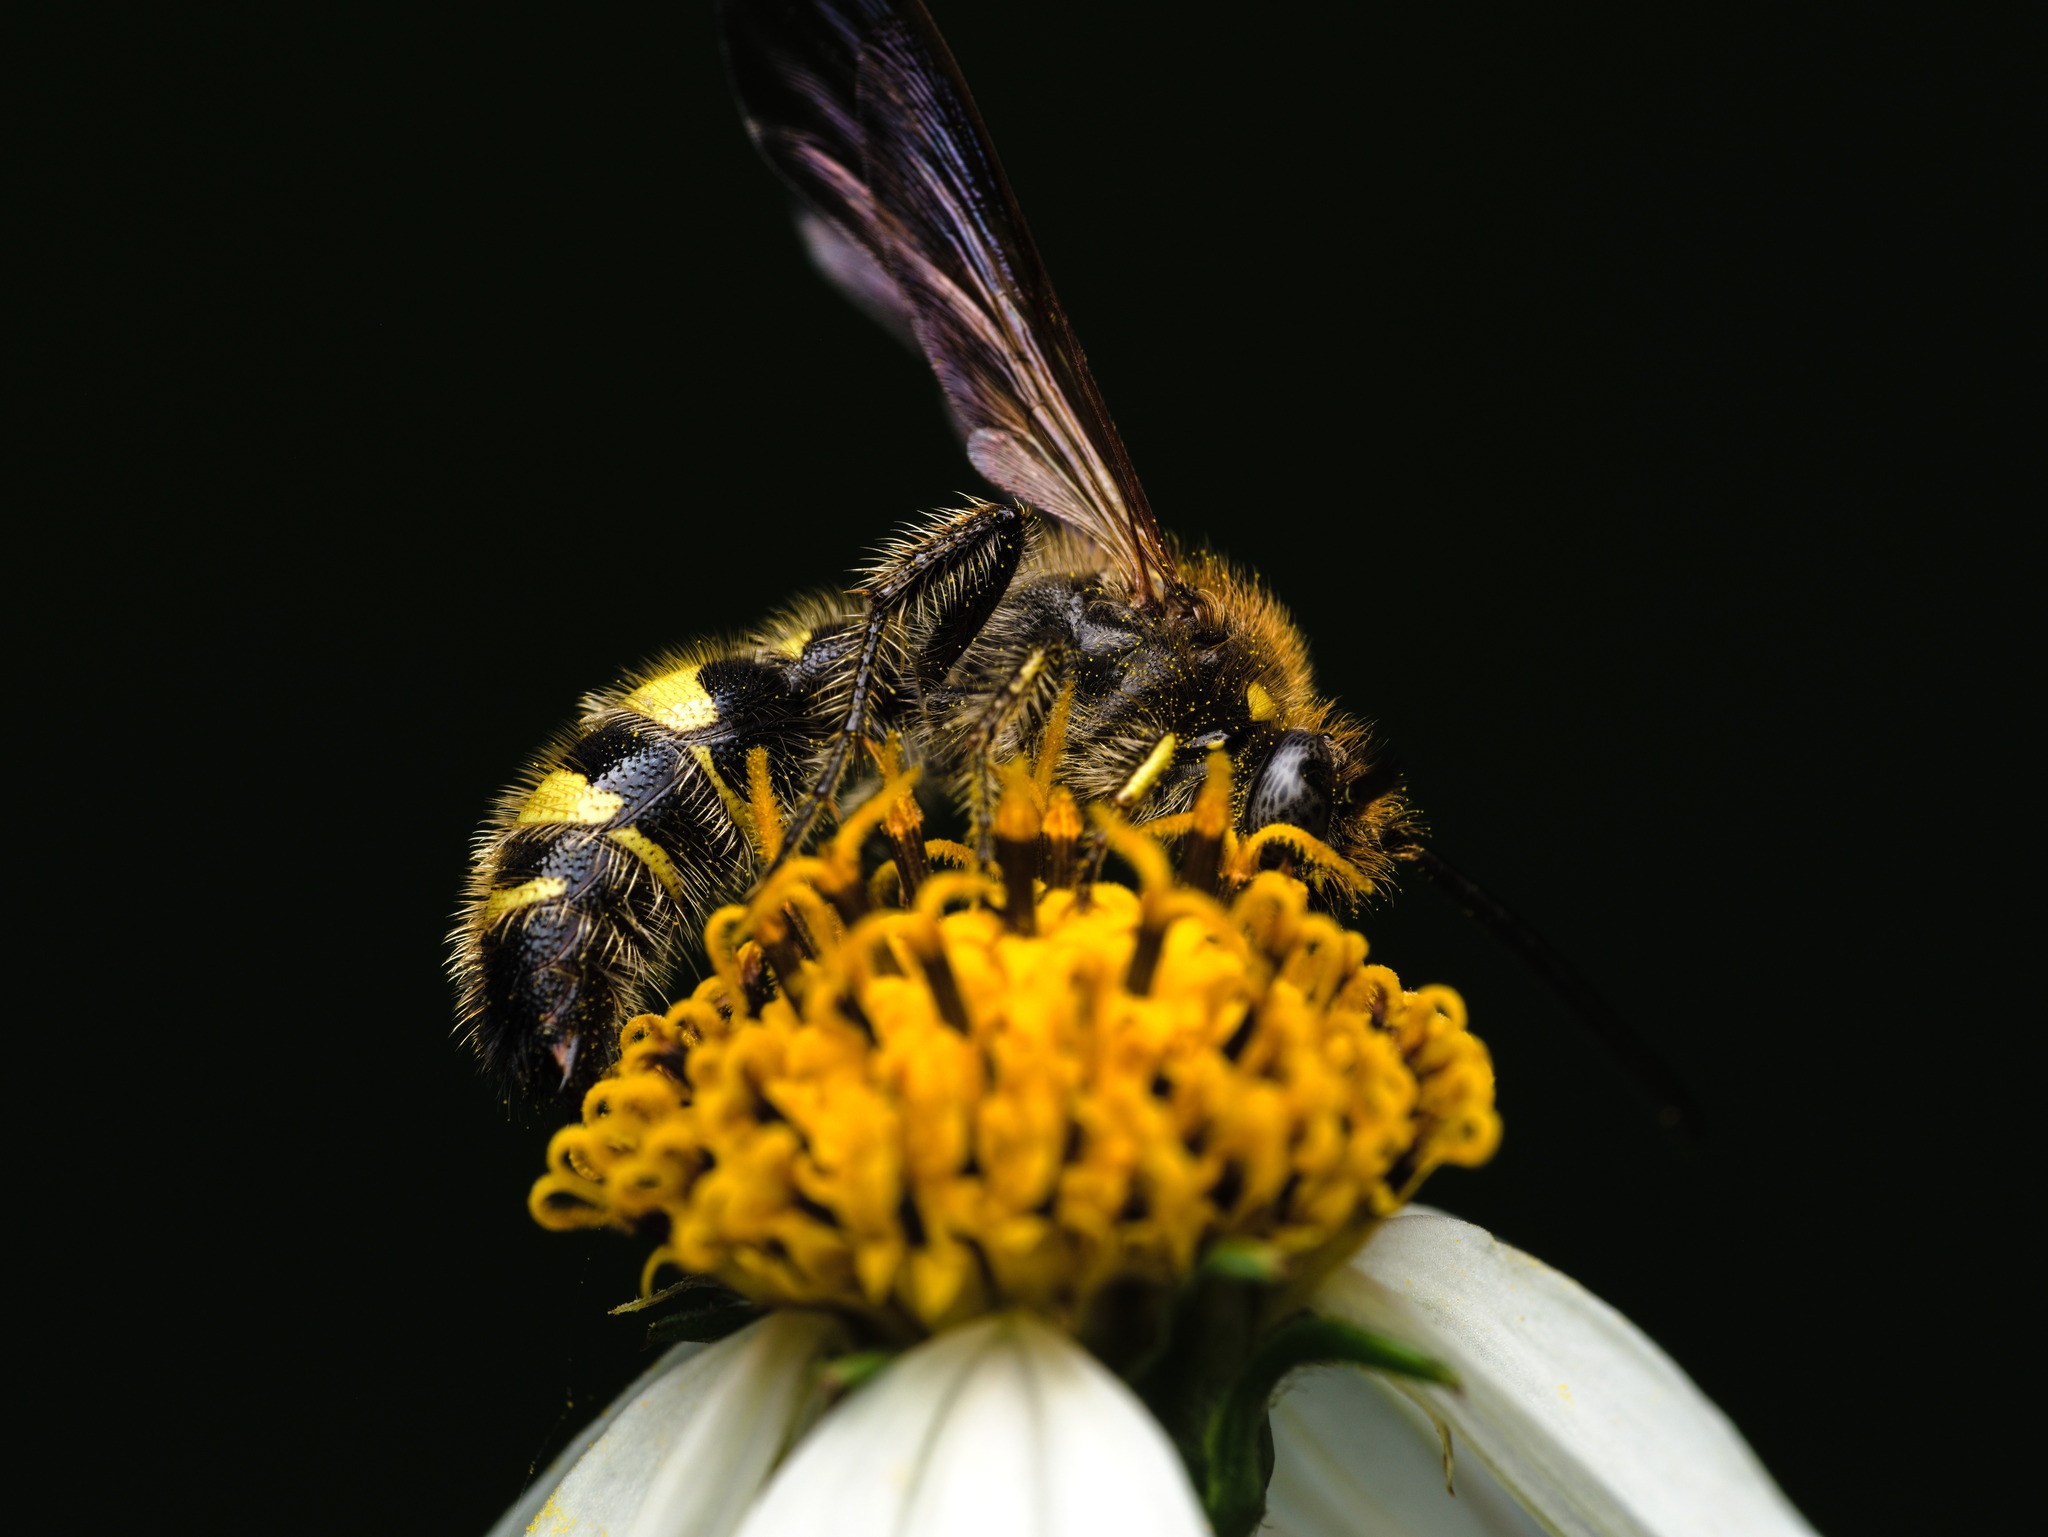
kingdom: Animalia
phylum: Arthropoda
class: Insecta
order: Hymenoptera
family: Scoliidae
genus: Xanthocampsomeris
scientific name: Xanthocampsomeris
